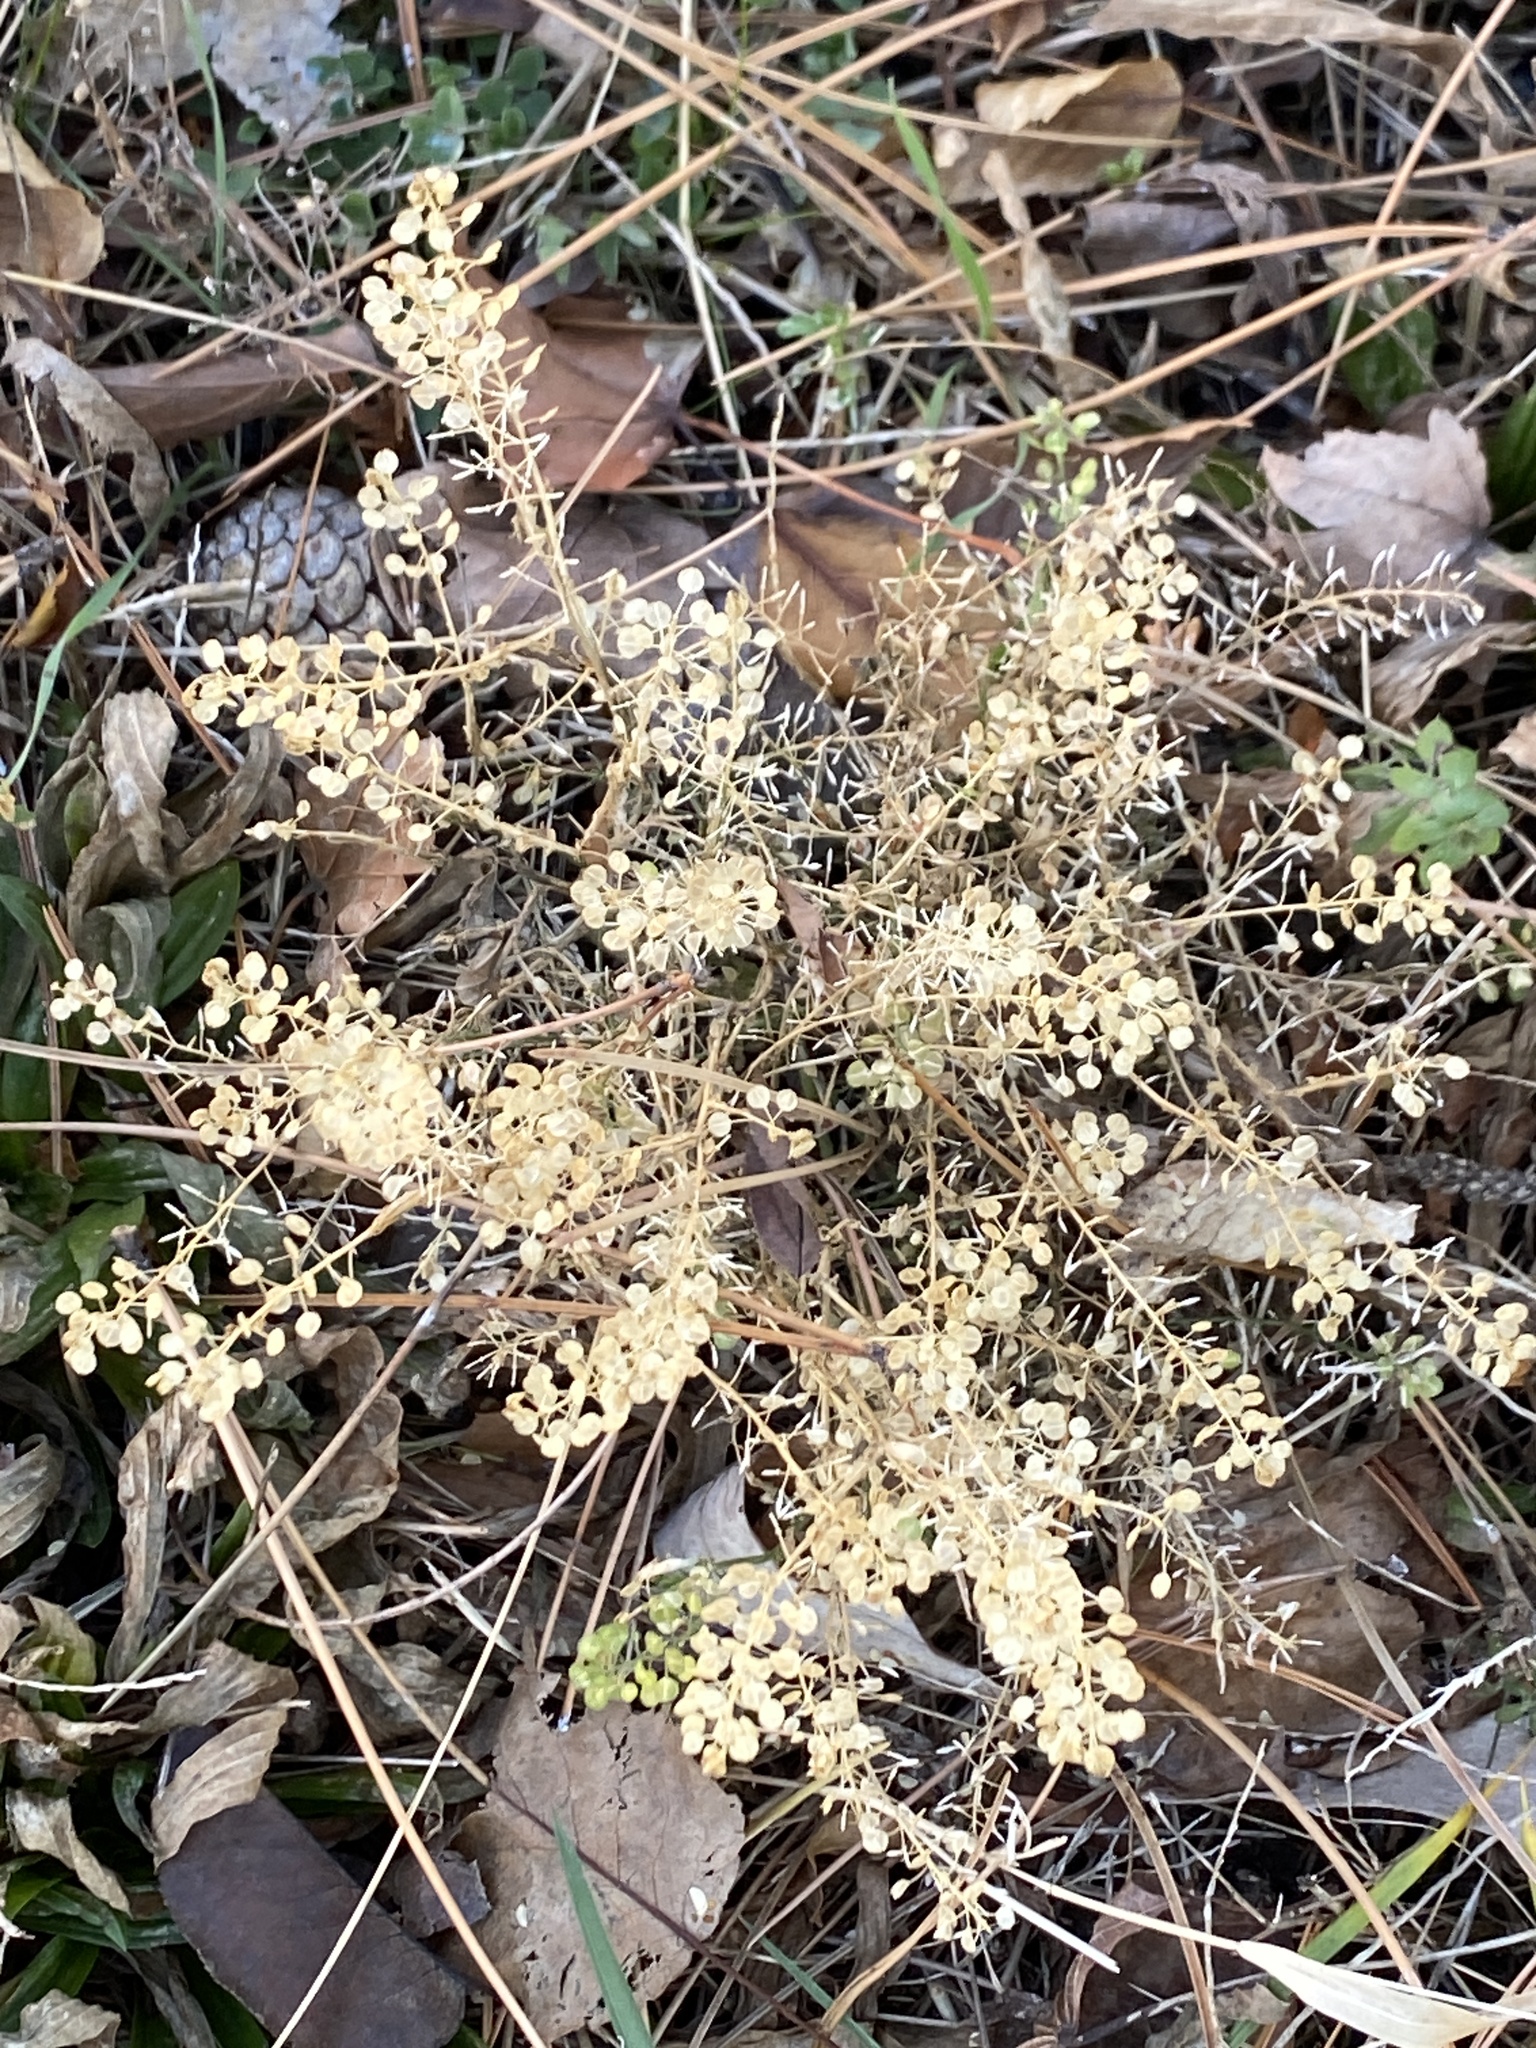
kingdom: Plantae
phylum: Tracheophyta
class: Magnoliopsida
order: Brassicales
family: Brassicaceae
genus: Lepidium
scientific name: Lepidium virginicum
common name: Least pepperwort
